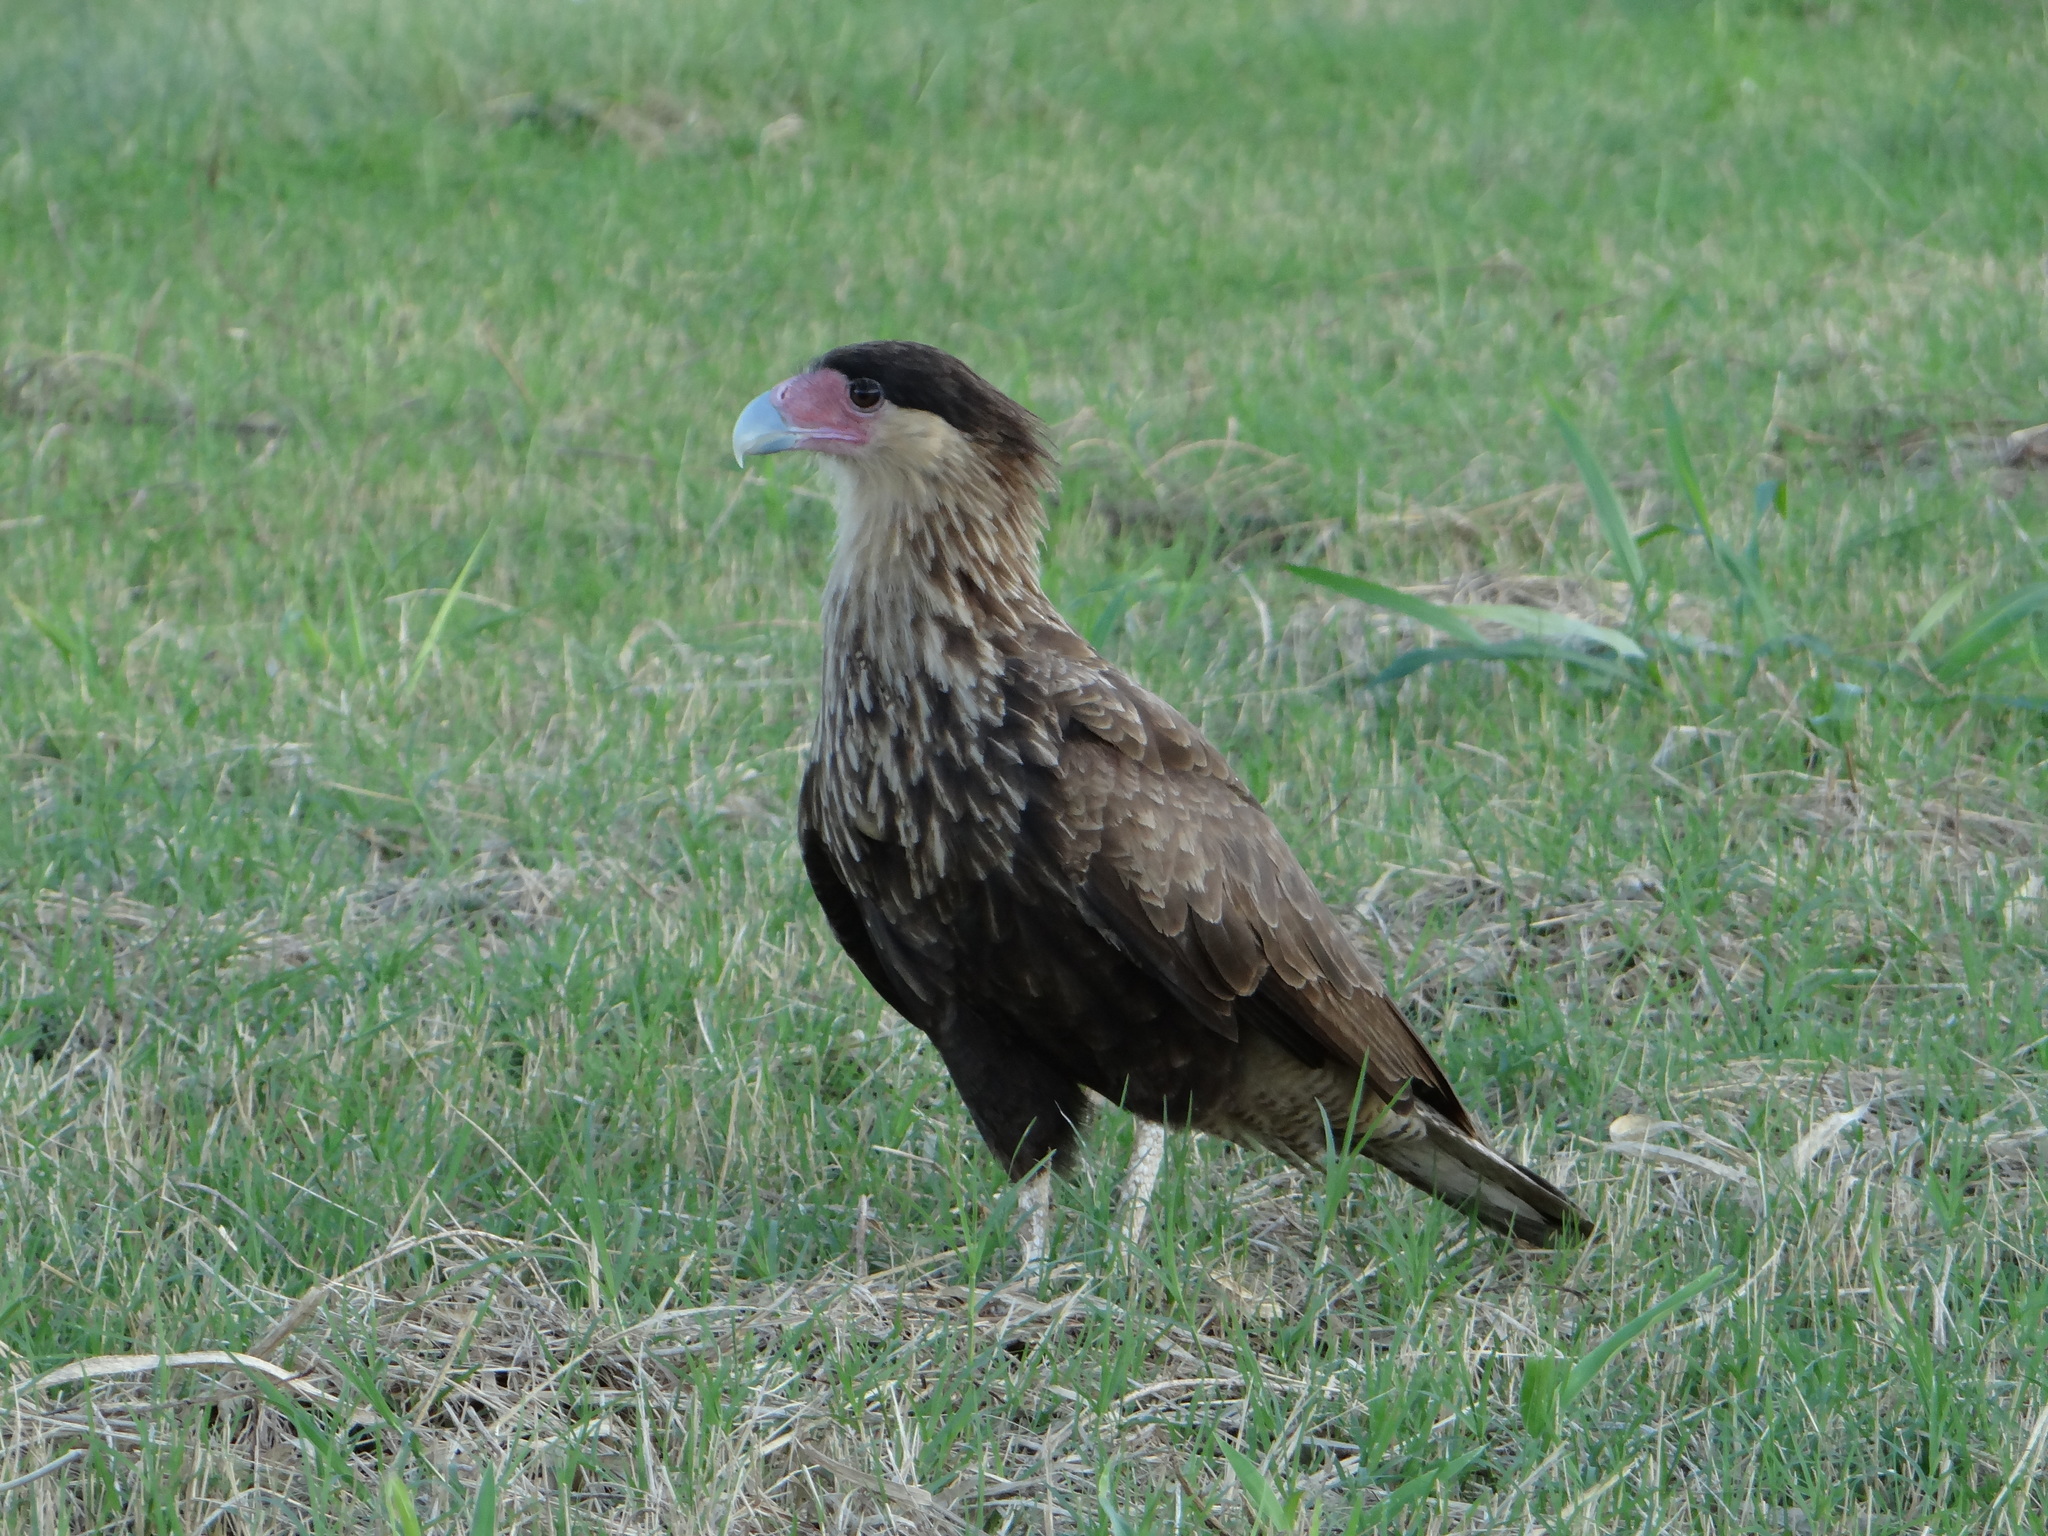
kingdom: Animalia
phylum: Chordata
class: Aves
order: Falconiformes
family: Falconidae
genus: Caracara
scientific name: Caracara plancus
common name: Southern caracara
